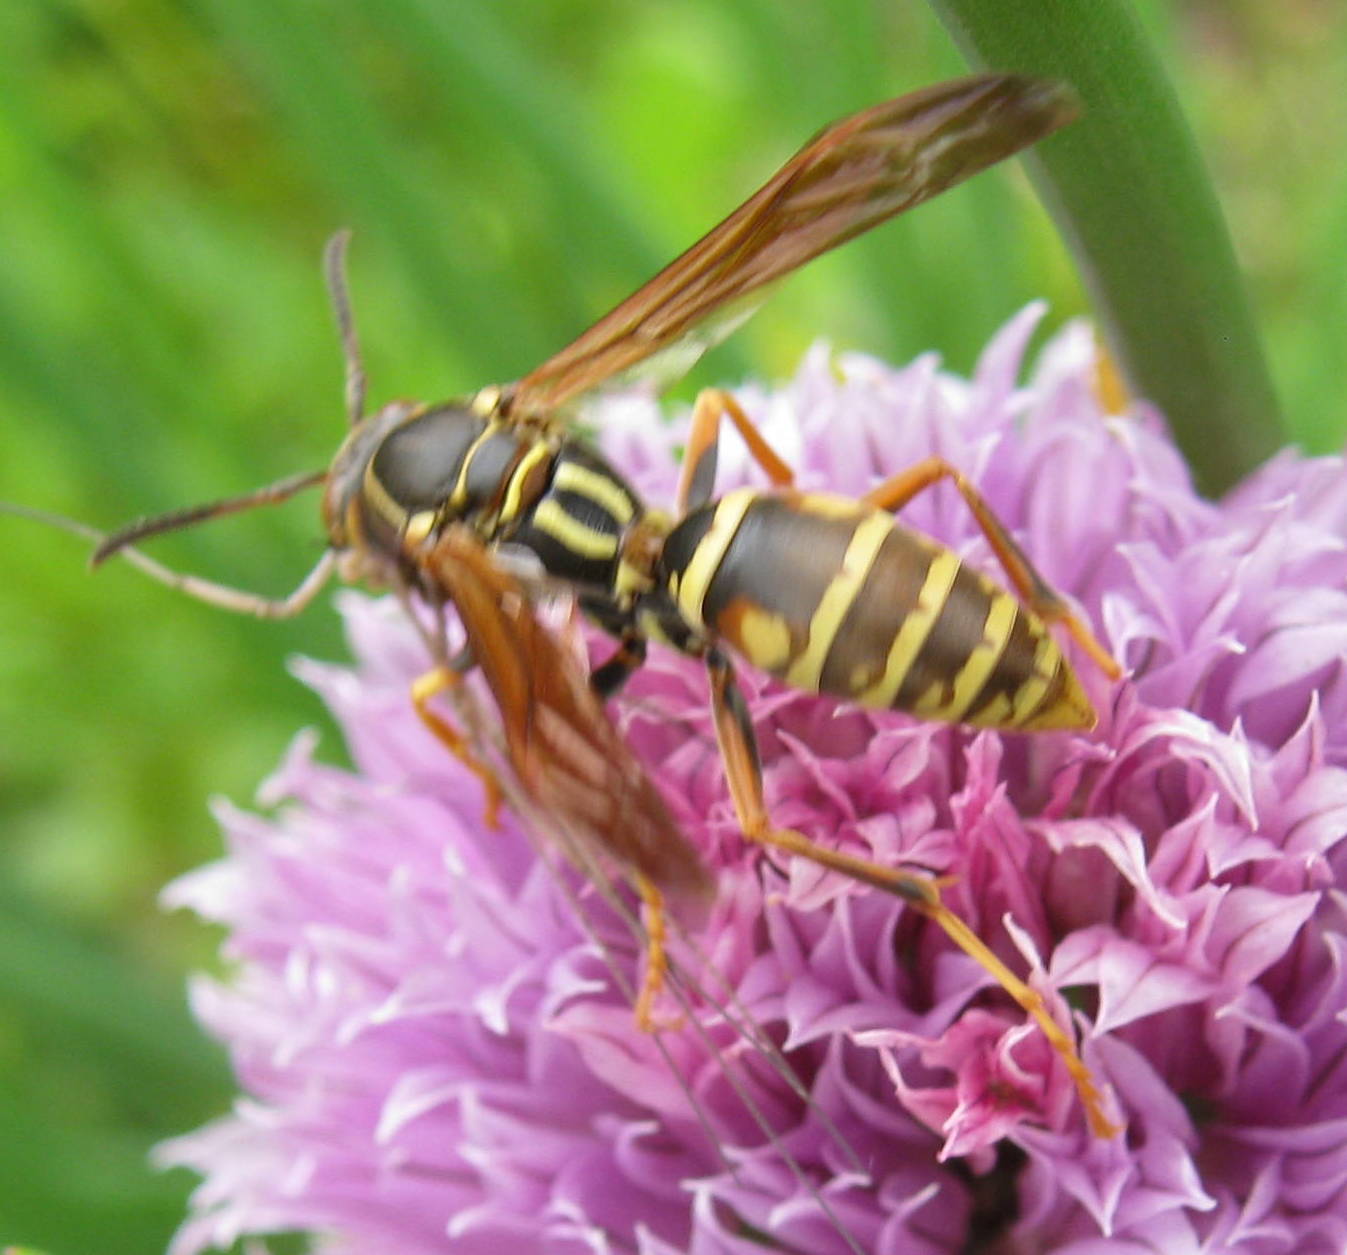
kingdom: Animalia
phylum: Arthropoda
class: Insecta
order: Hymenoptera
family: Eumenidae
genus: Polistes
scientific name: Polistes fuscatus
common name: Dark paper wasp
